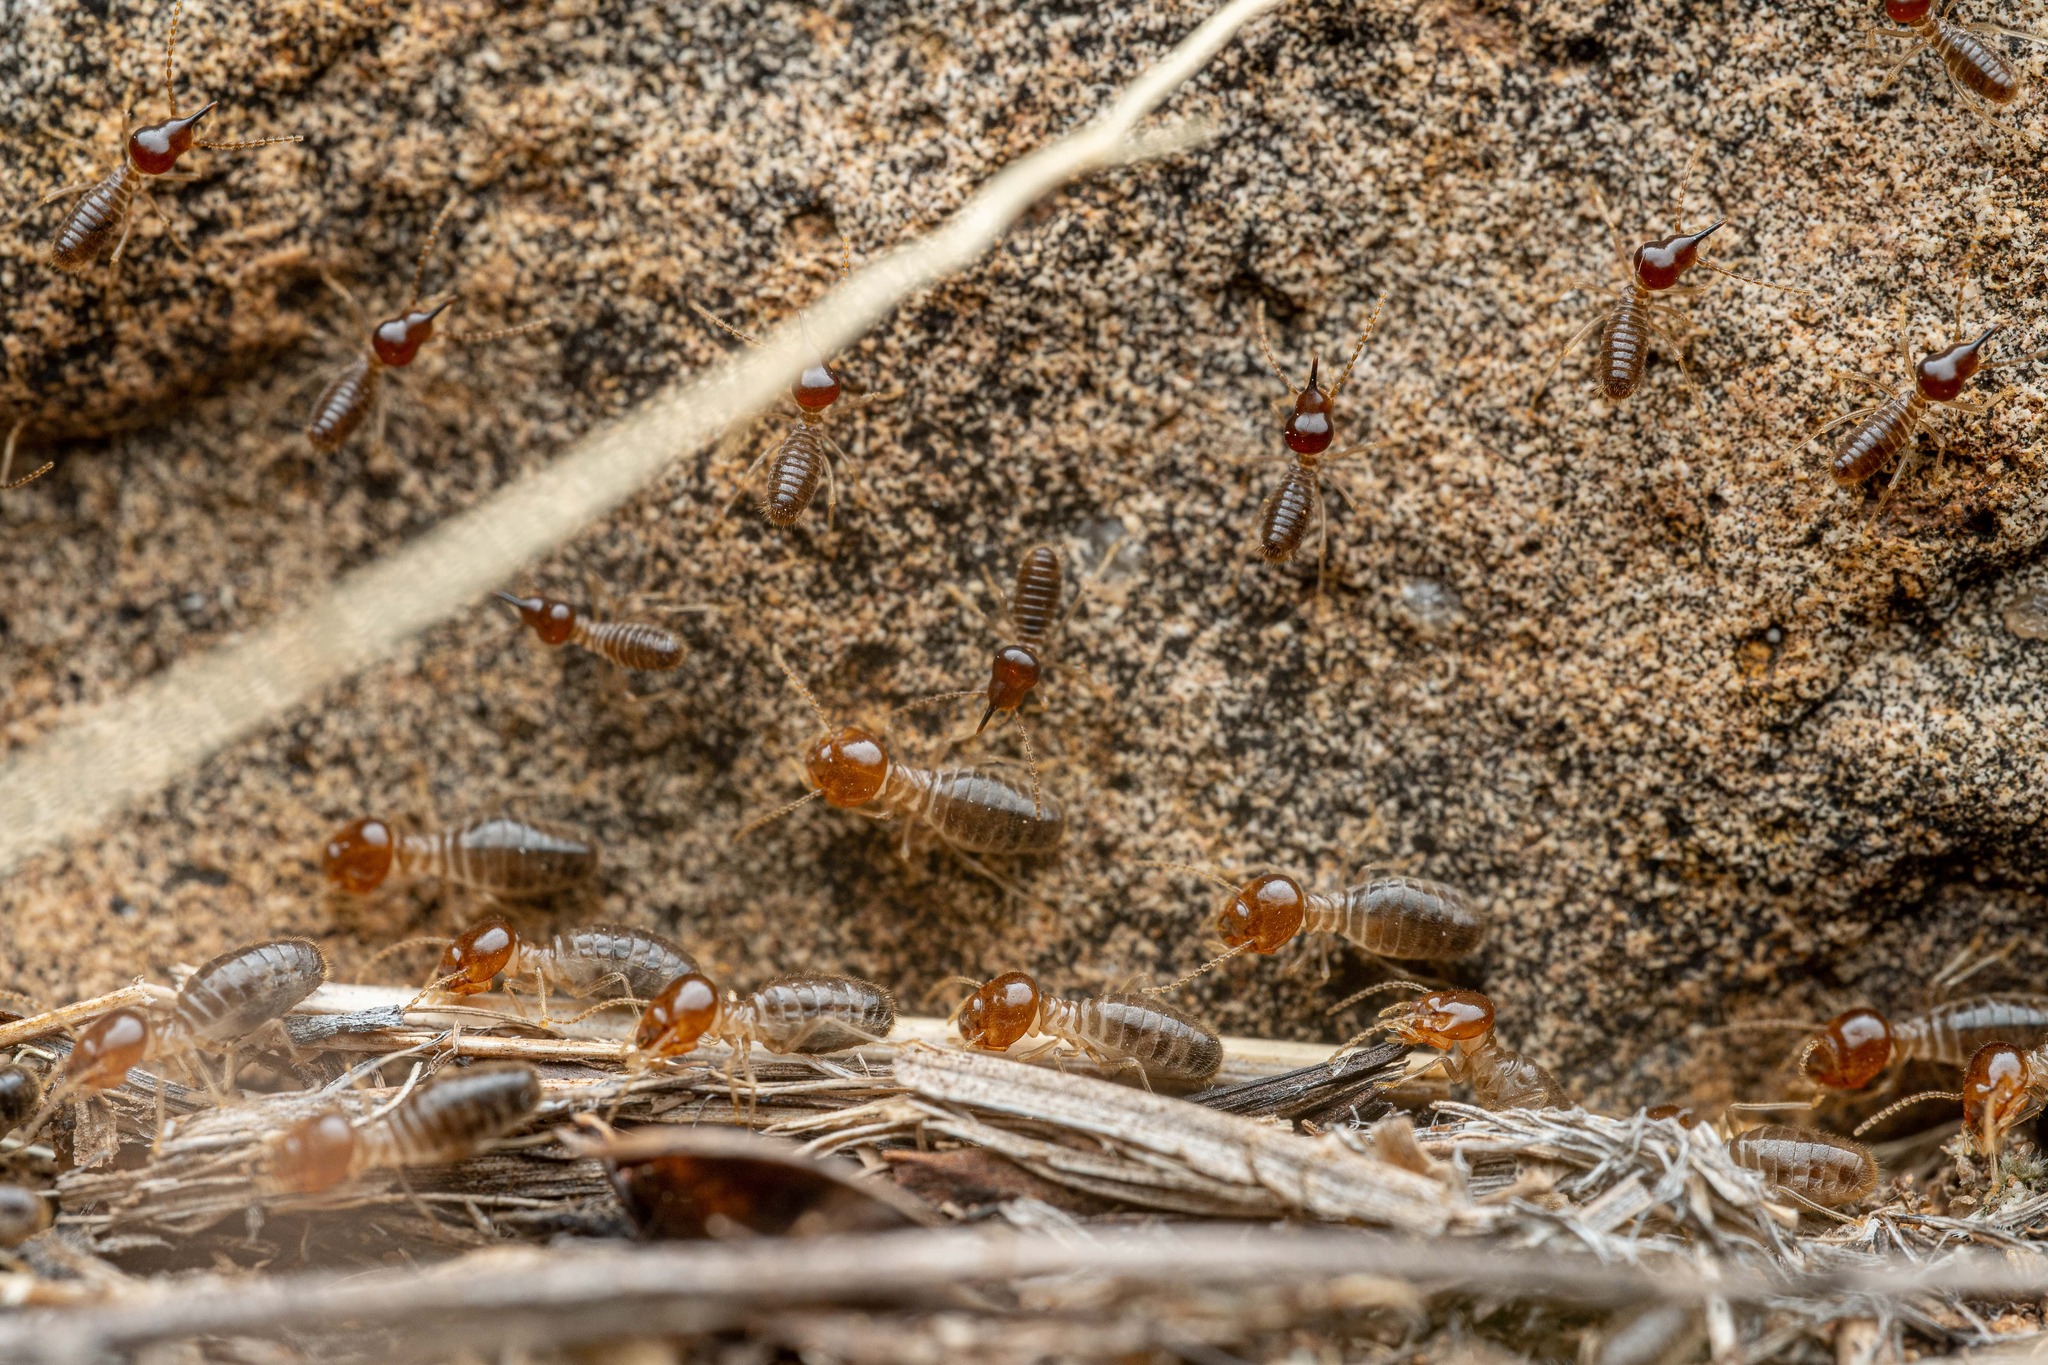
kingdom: Animalia
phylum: Arthropoda
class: Insecta
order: Blattodea
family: Termitidae
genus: Tenuirostritermes
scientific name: Tenuirostritermes tenuirostris
